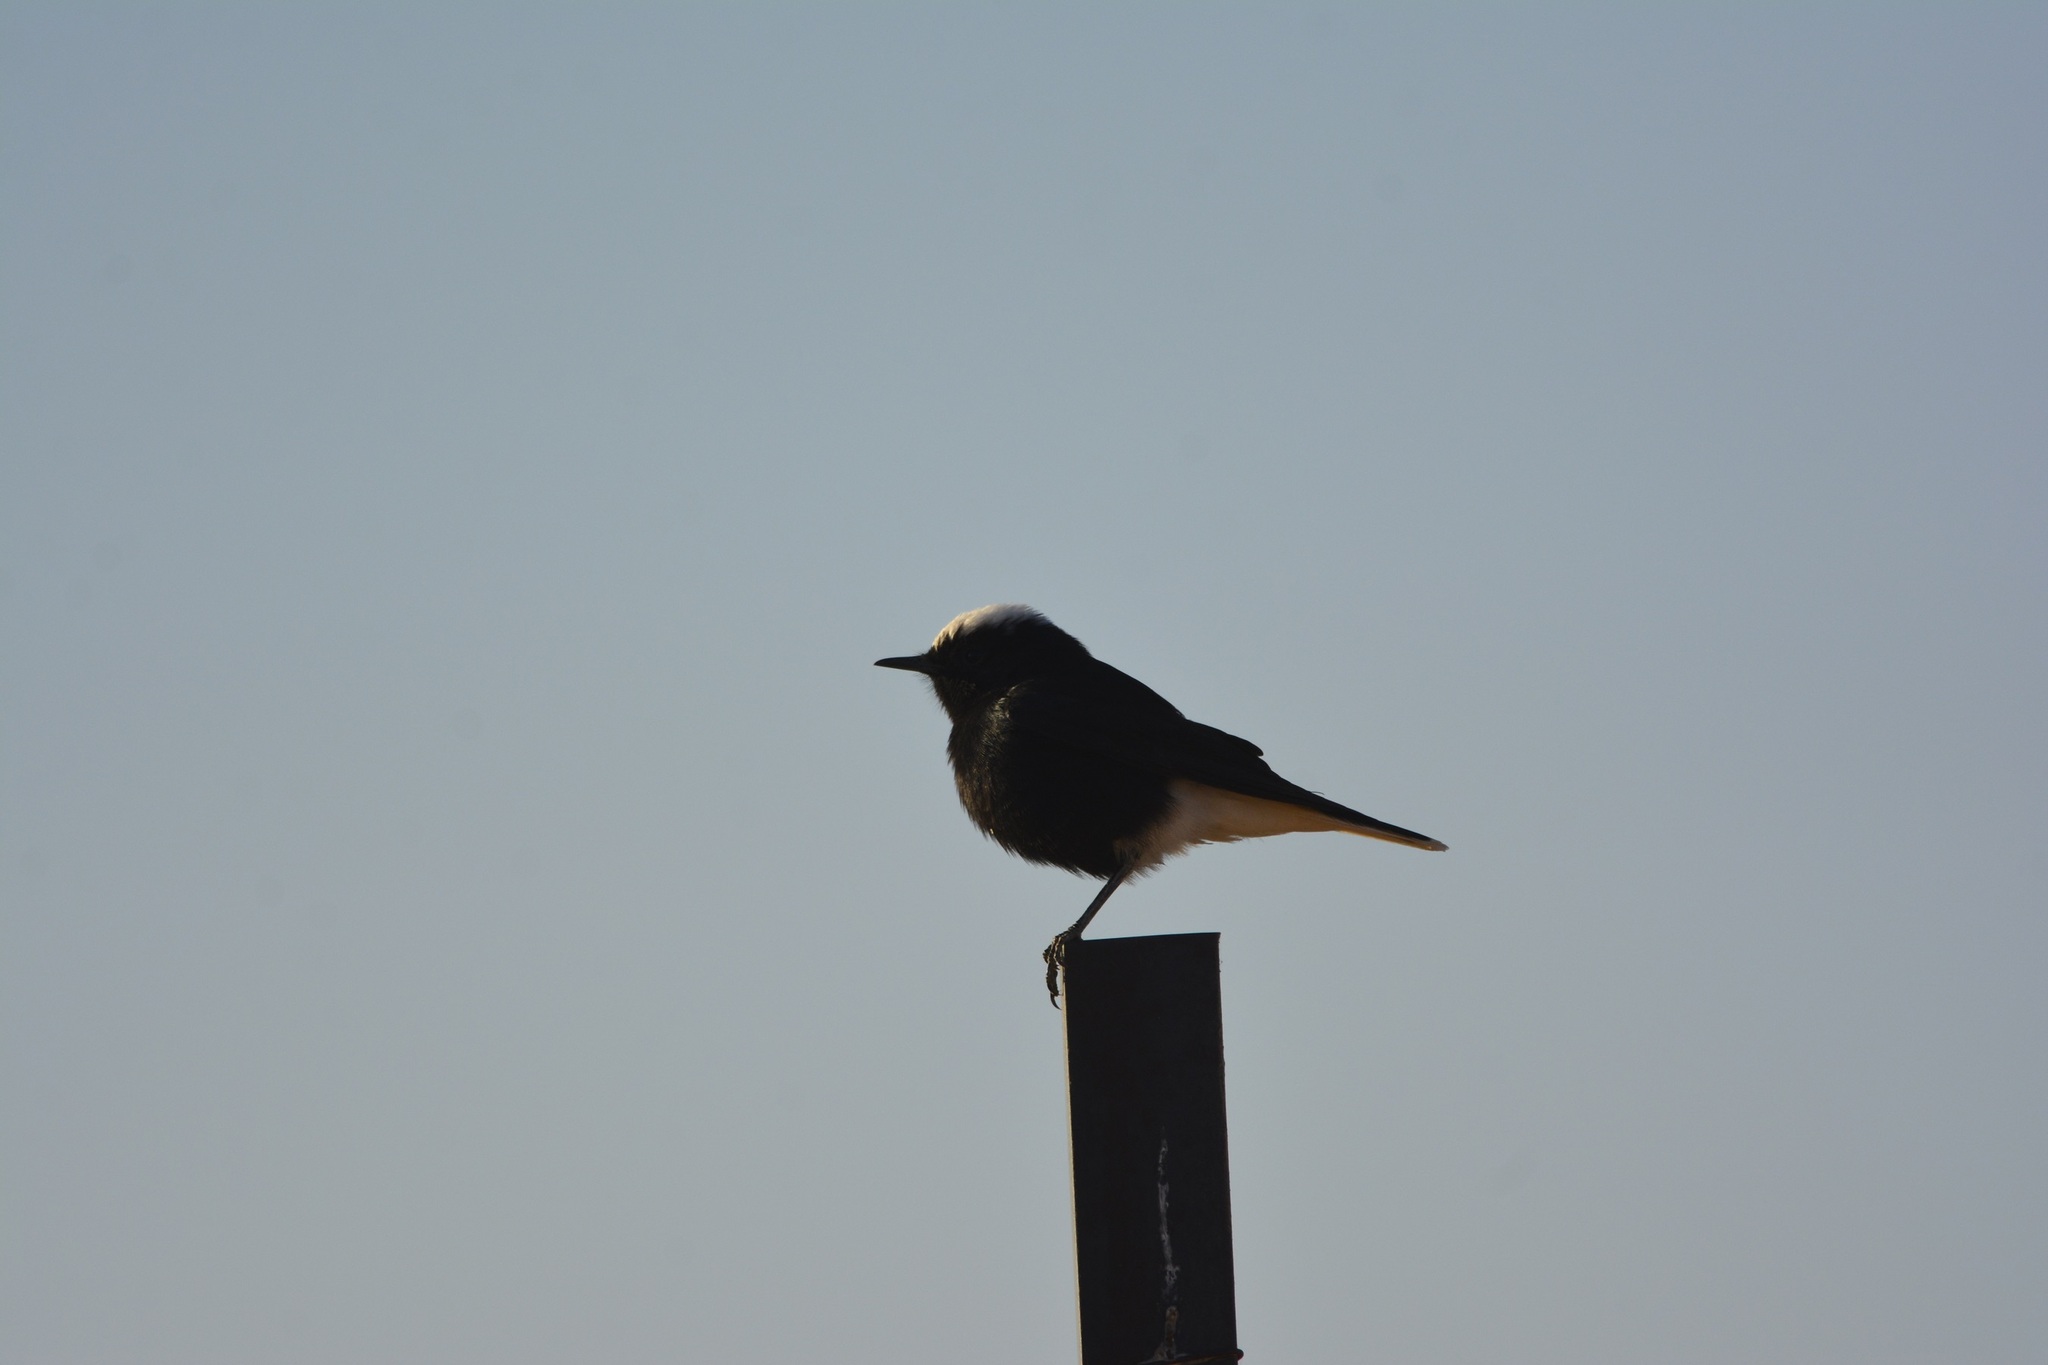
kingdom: Animalia
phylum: Chordata
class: Aves
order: Passeriformes
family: Muscicapidae
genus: Oenanthe
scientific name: Oenanthe leucopyga
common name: White-crowned wheatear
